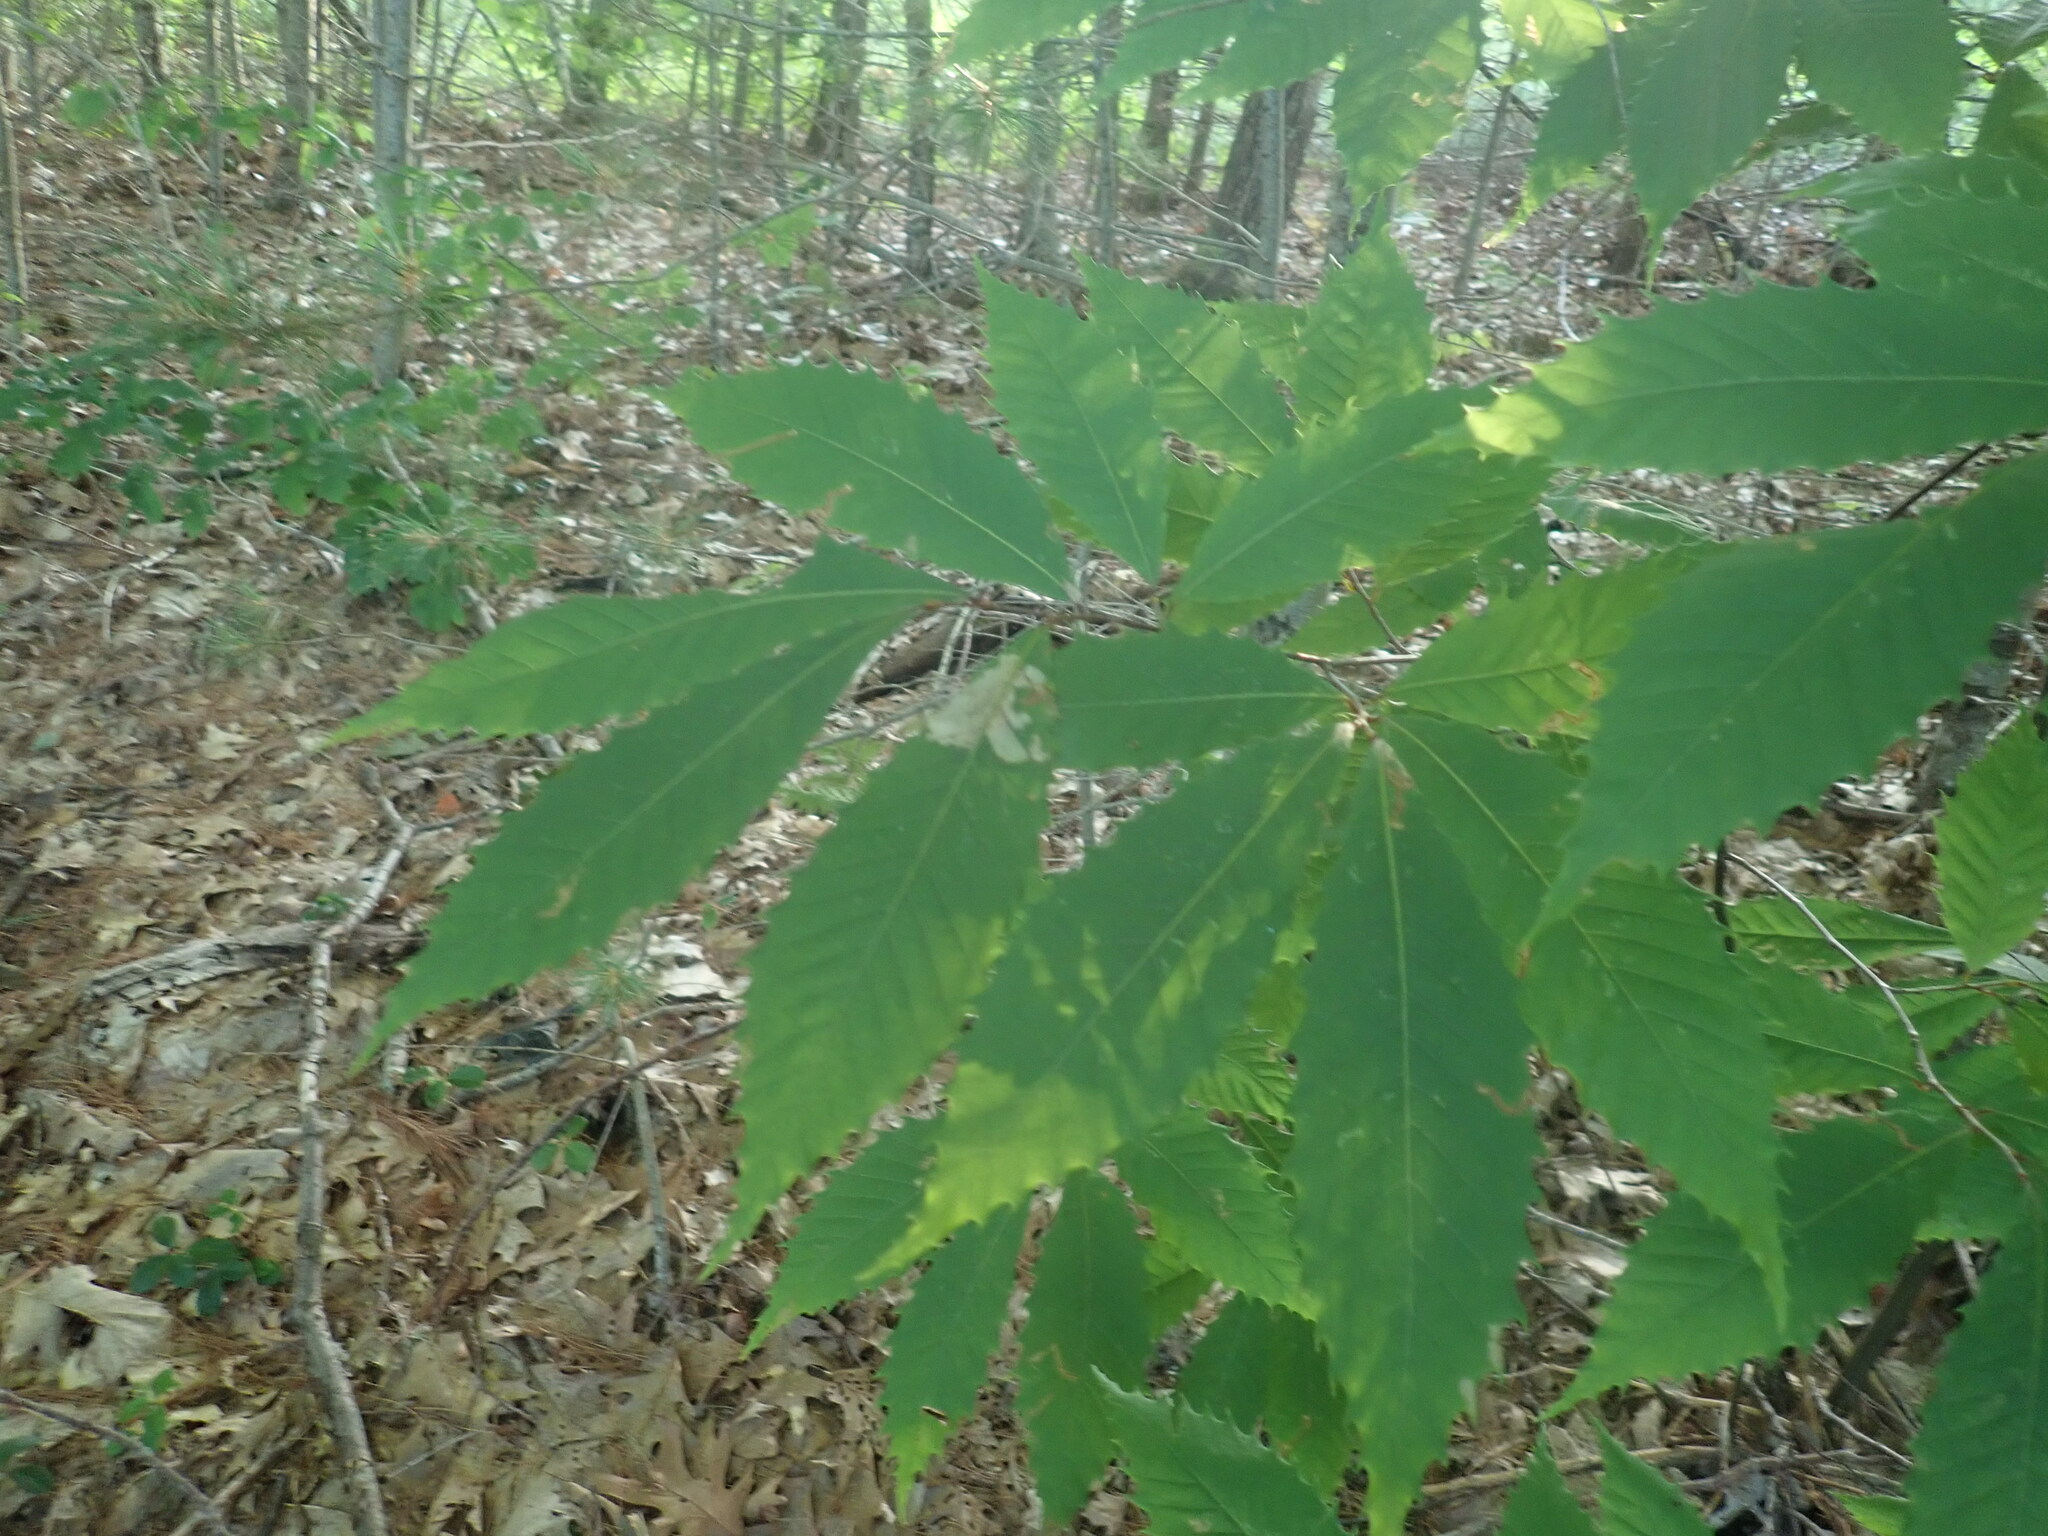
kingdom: Plantae
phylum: Tracheophyta
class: Magnoliopsida
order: Fagales
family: Fagaceae
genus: Castanea
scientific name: Castanea dentata
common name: American chestnut
